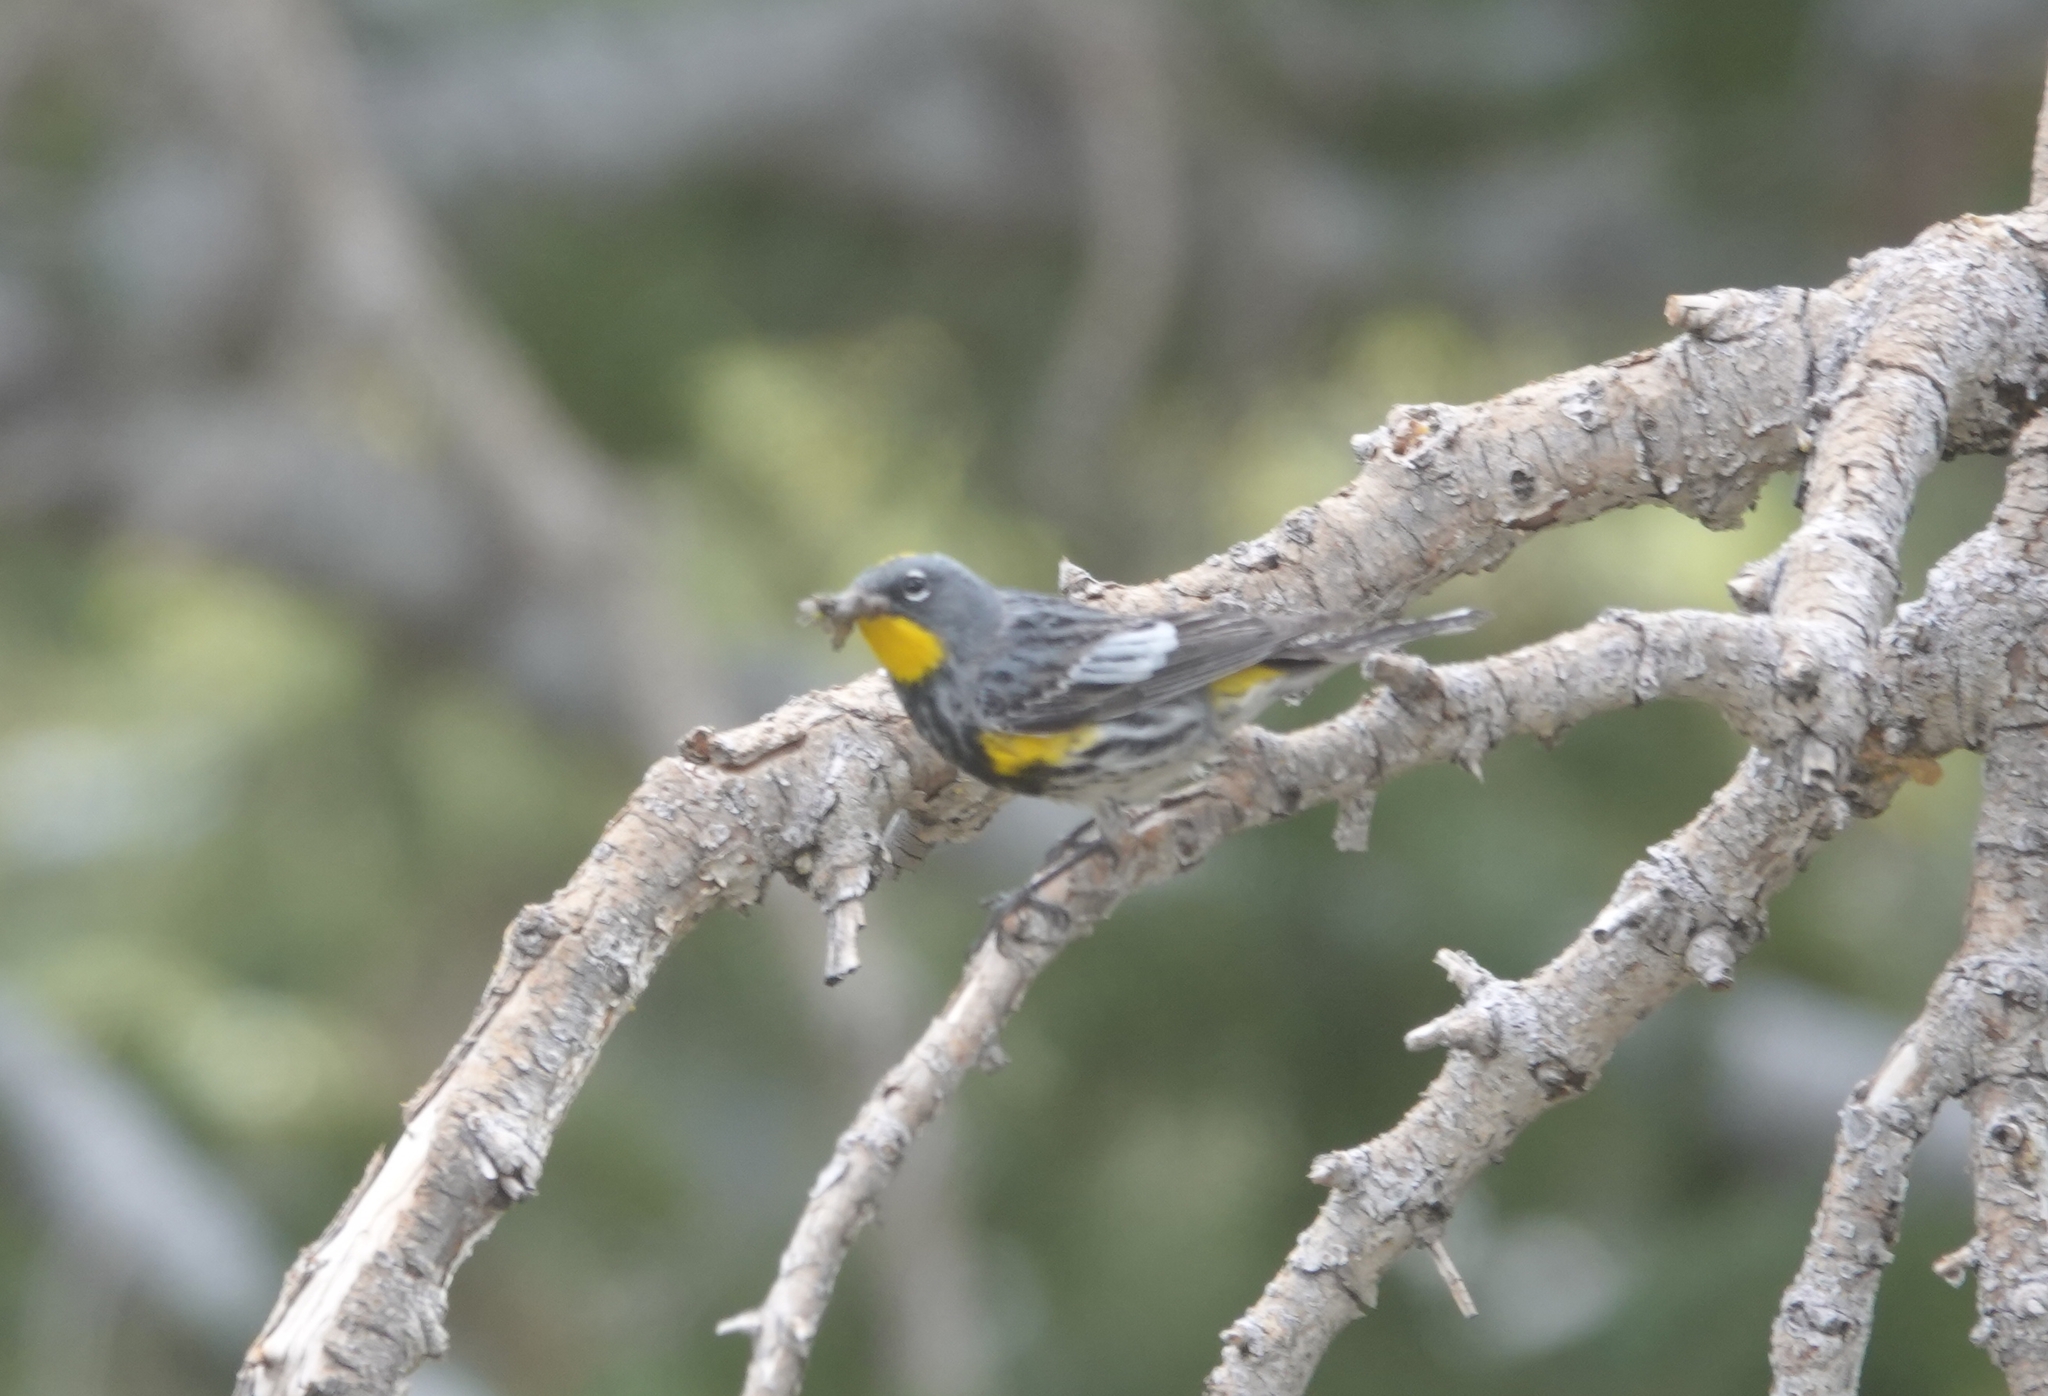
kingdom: Animalia
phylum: Chordata
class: Aves
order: Passeriformes
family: Parulidae
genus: Setophaga
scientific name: Setophaga coronata
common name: Myrtle warbler
